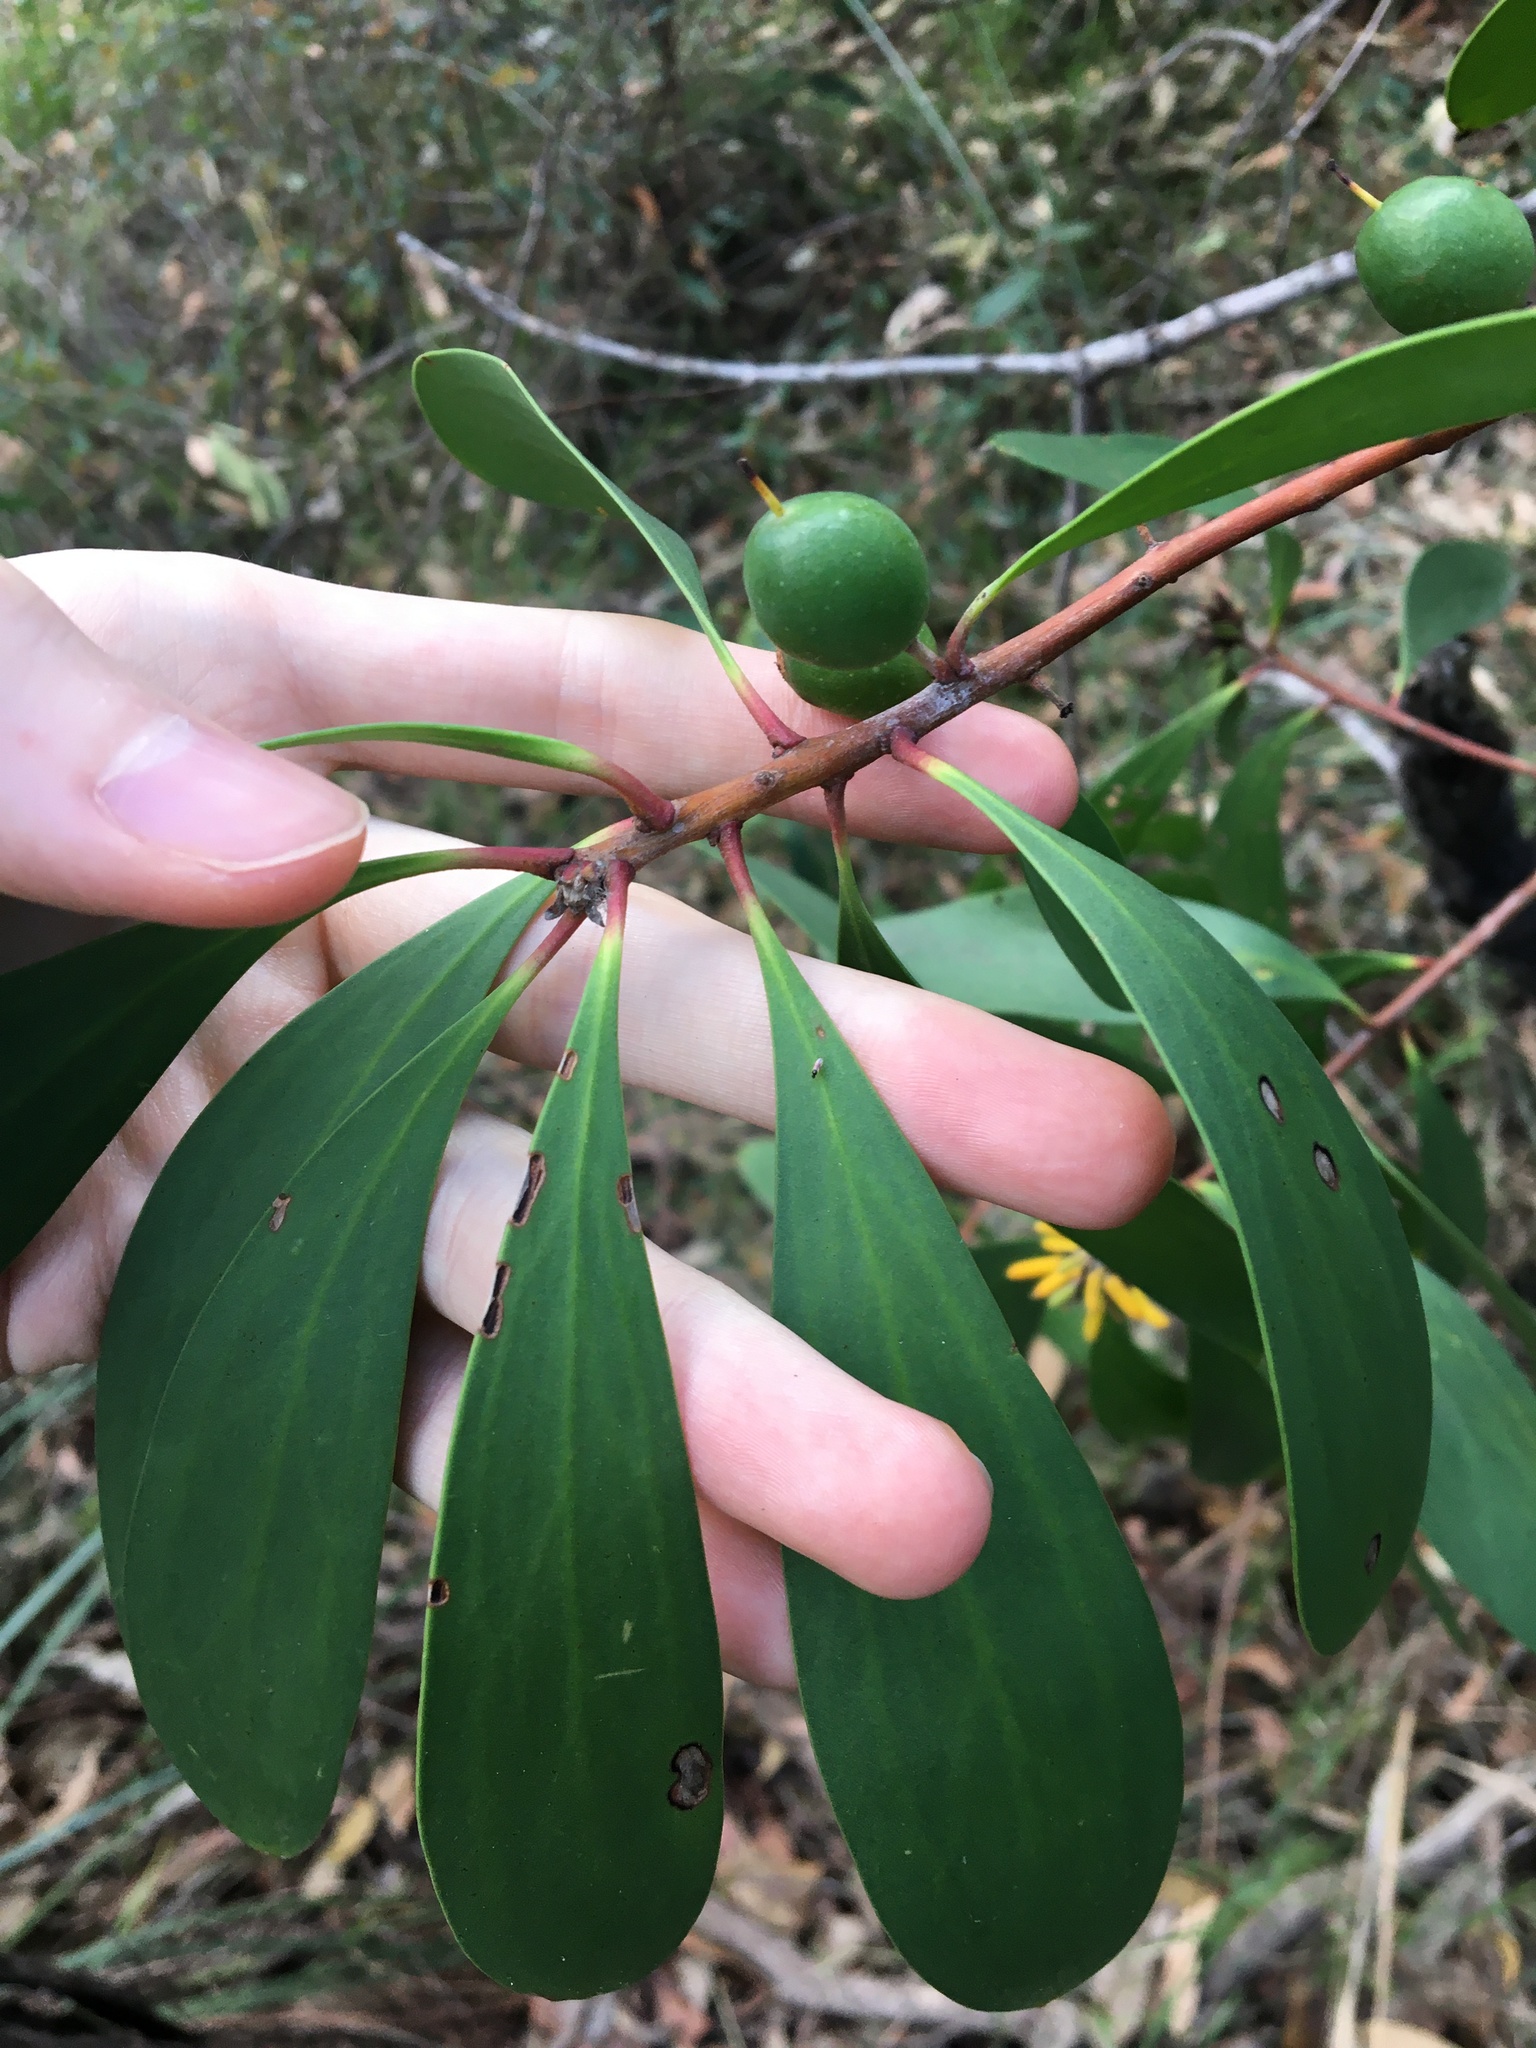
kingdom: Plantae
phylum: Tracheophyta
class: Magnoliopsida
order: Proteales
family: Proteaceae
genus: Persoonia
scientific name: Persoonia levis
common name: Smooth geebung
